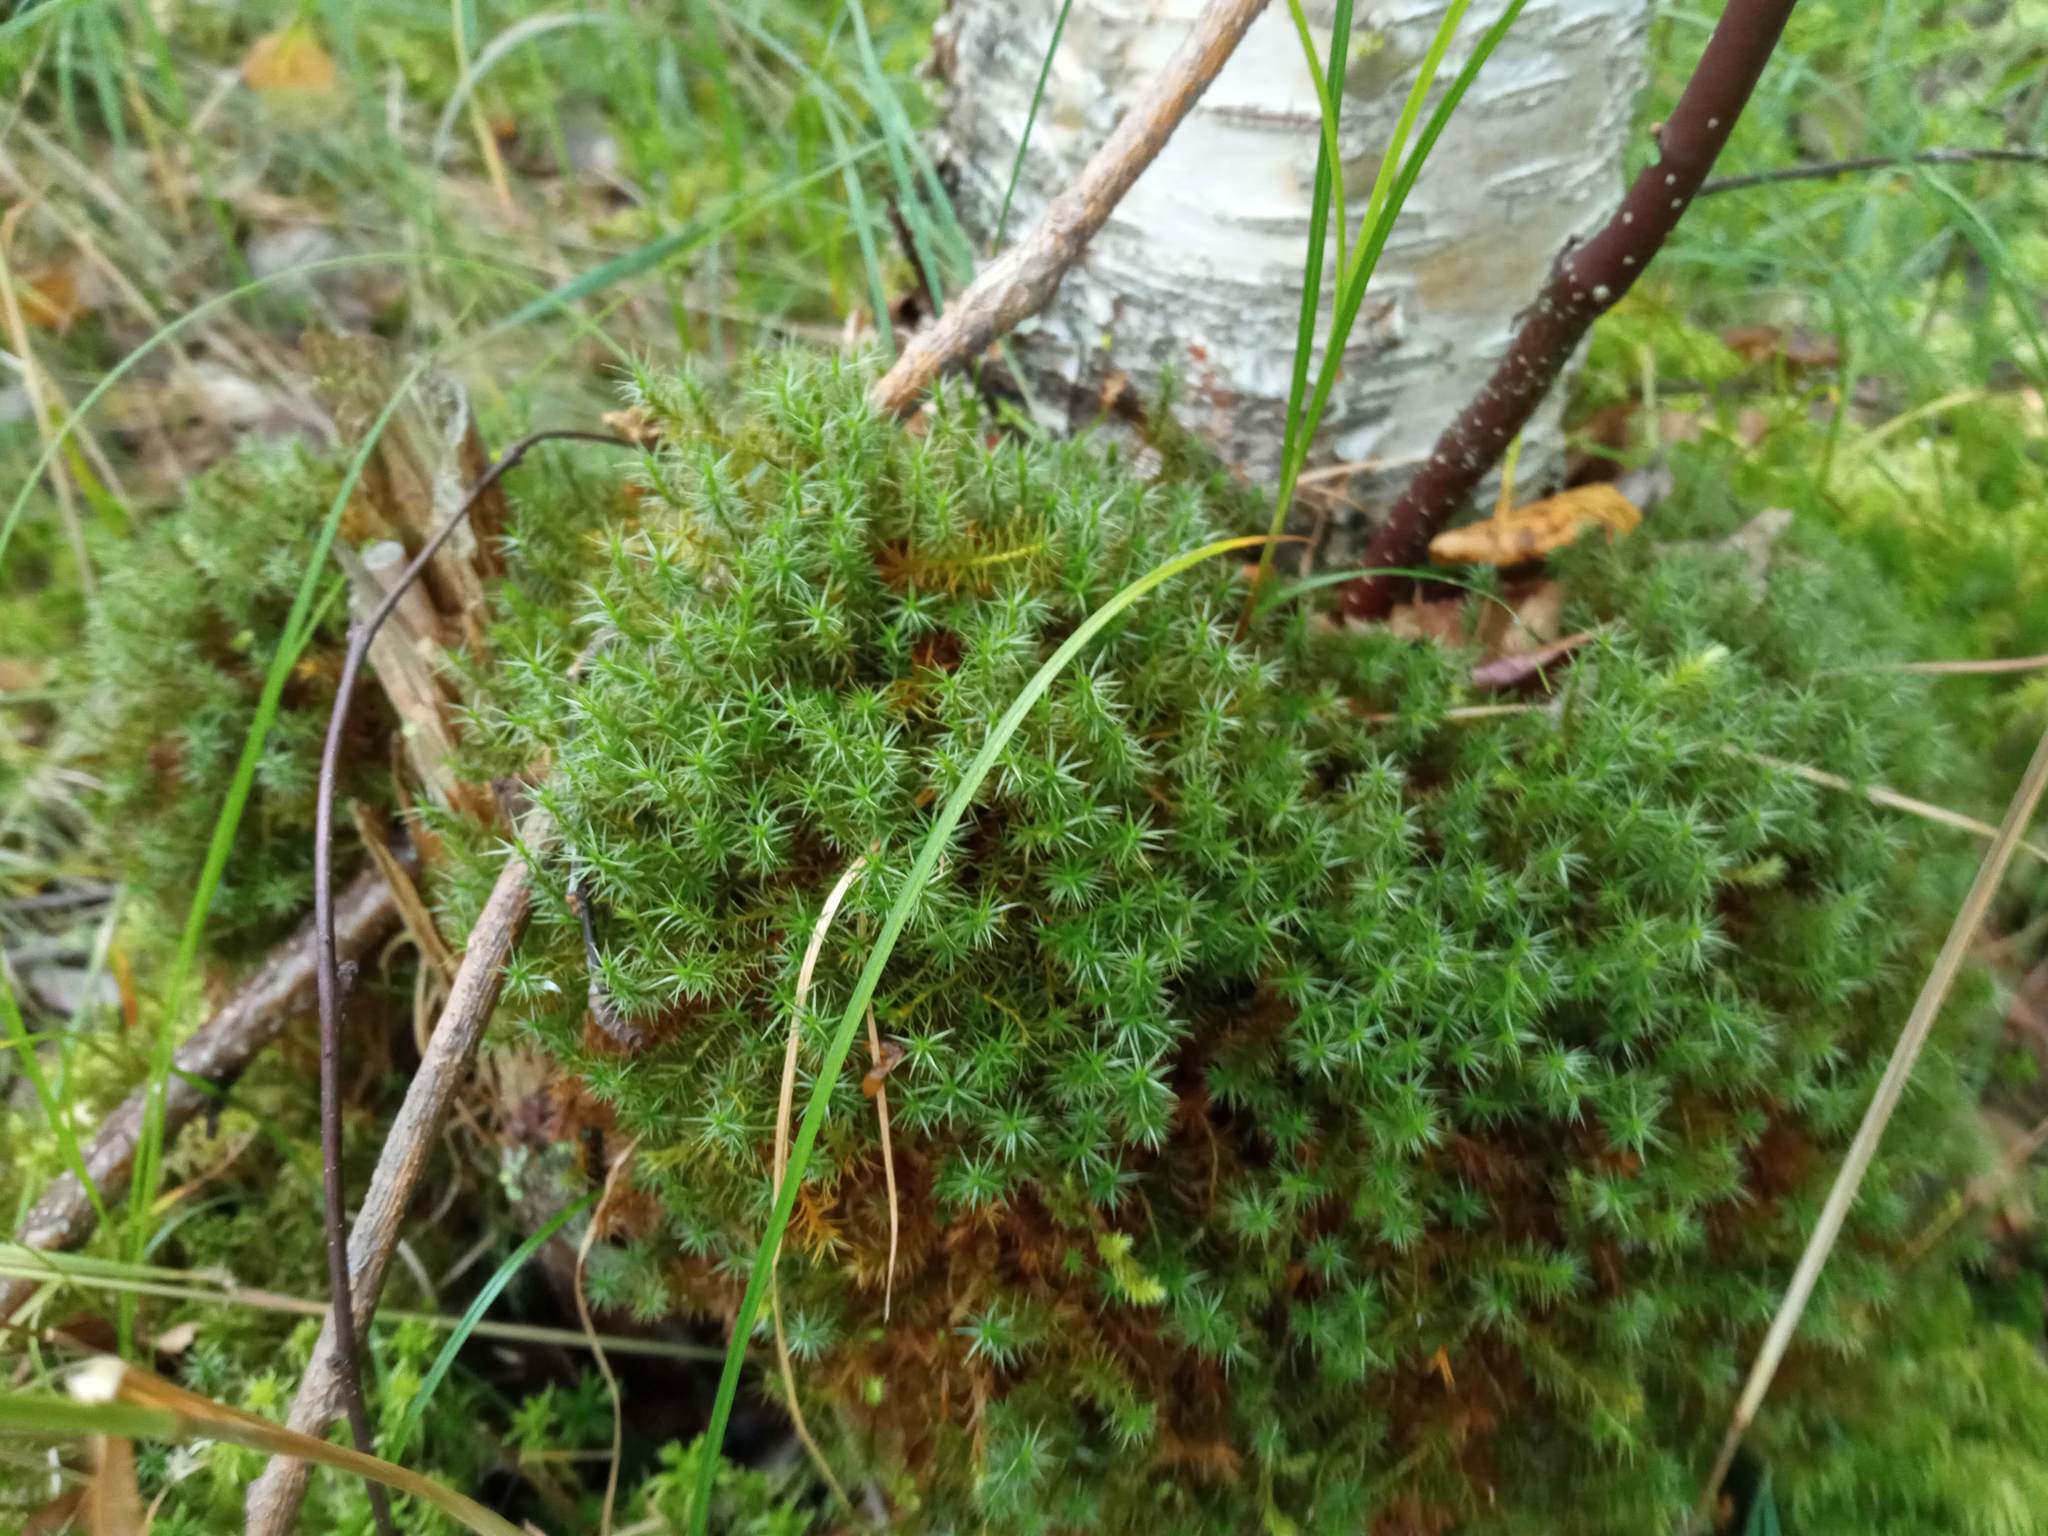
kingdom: Plantae
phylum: Bryophyta
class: Polytrichopsida
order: Polytrichales
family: Polytrichaceae
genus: Polytrichum
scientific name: Polytrichum commune
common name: Common haircap
